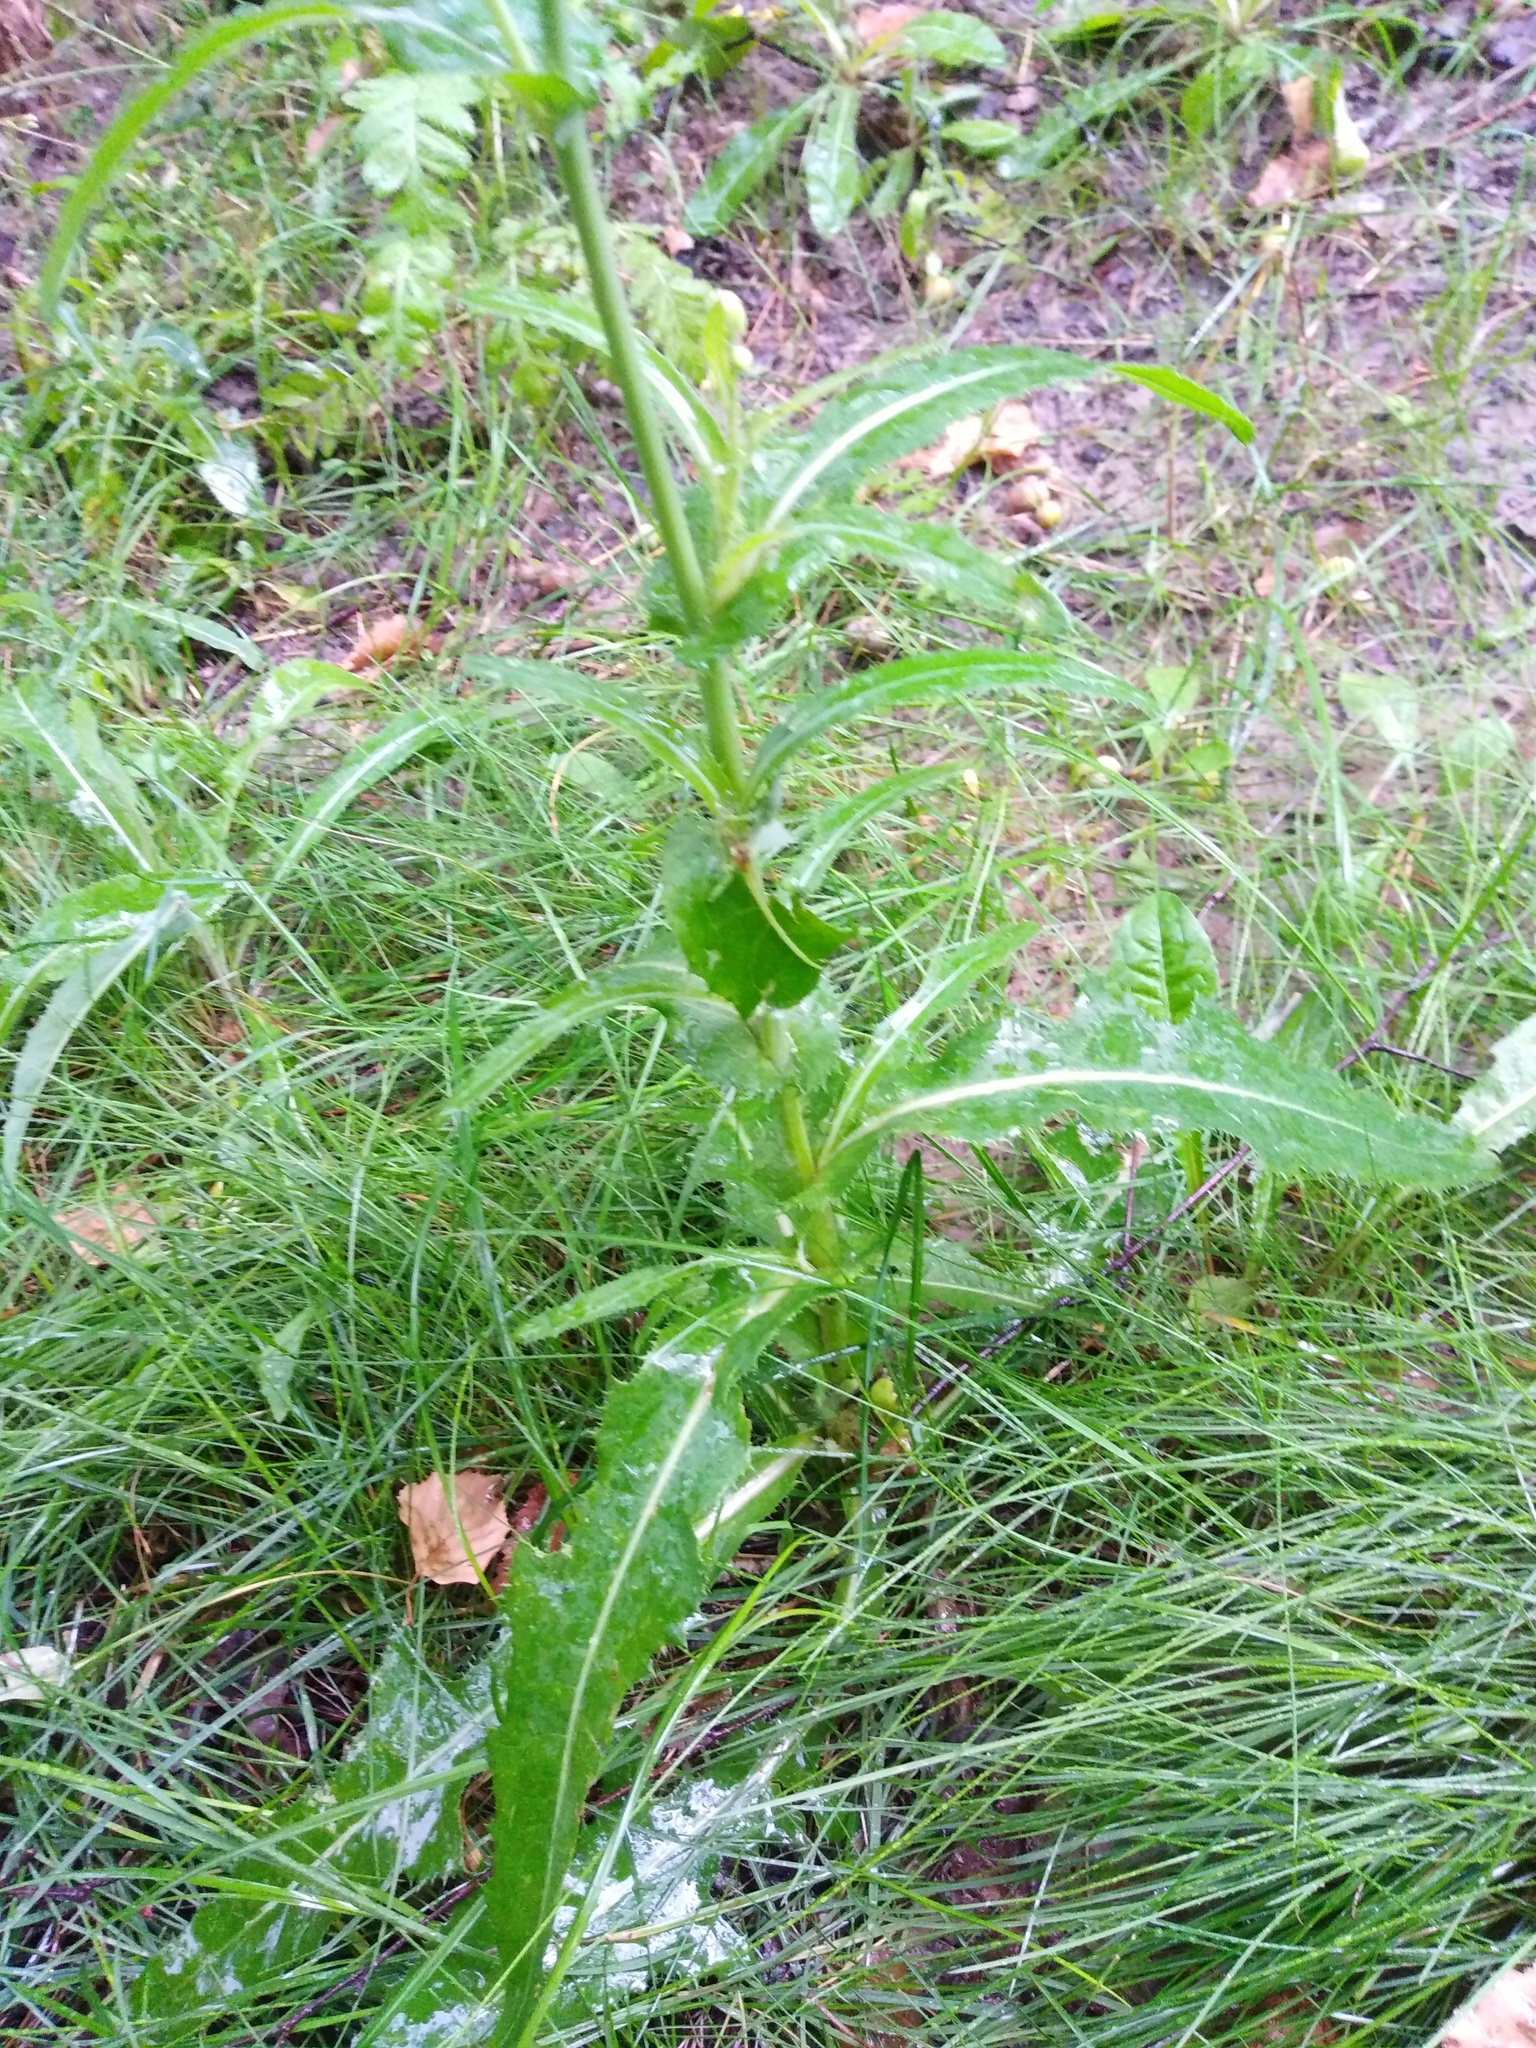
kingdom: Plantae
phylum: Tracheophyta
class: Magnoliopsida
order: Asterales
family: Asteraceae
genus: Sonchus
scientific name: Sonchus arvensis
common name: Perennial sow-thistle
